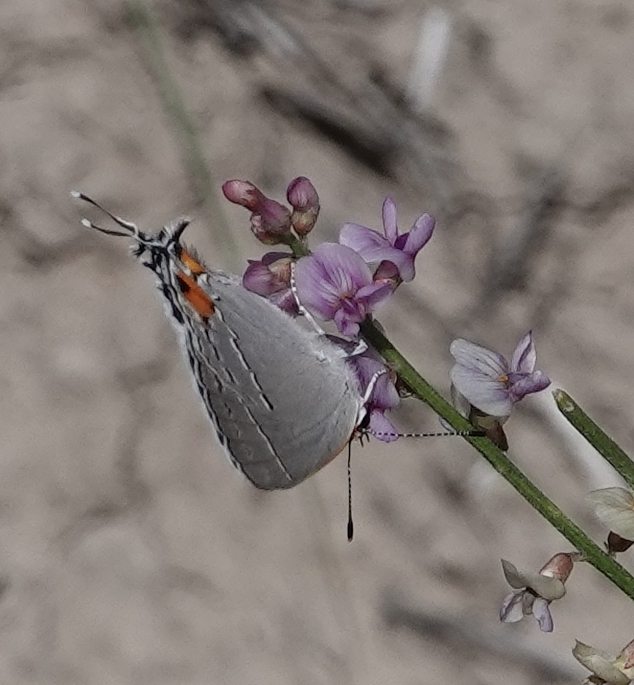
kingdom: Animalia
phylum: Arthropoda
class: Insecta
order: Lepidoptera
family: Lycaenidae
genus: Strymon
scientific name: Strymon melinus
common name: Gray hairstreak
